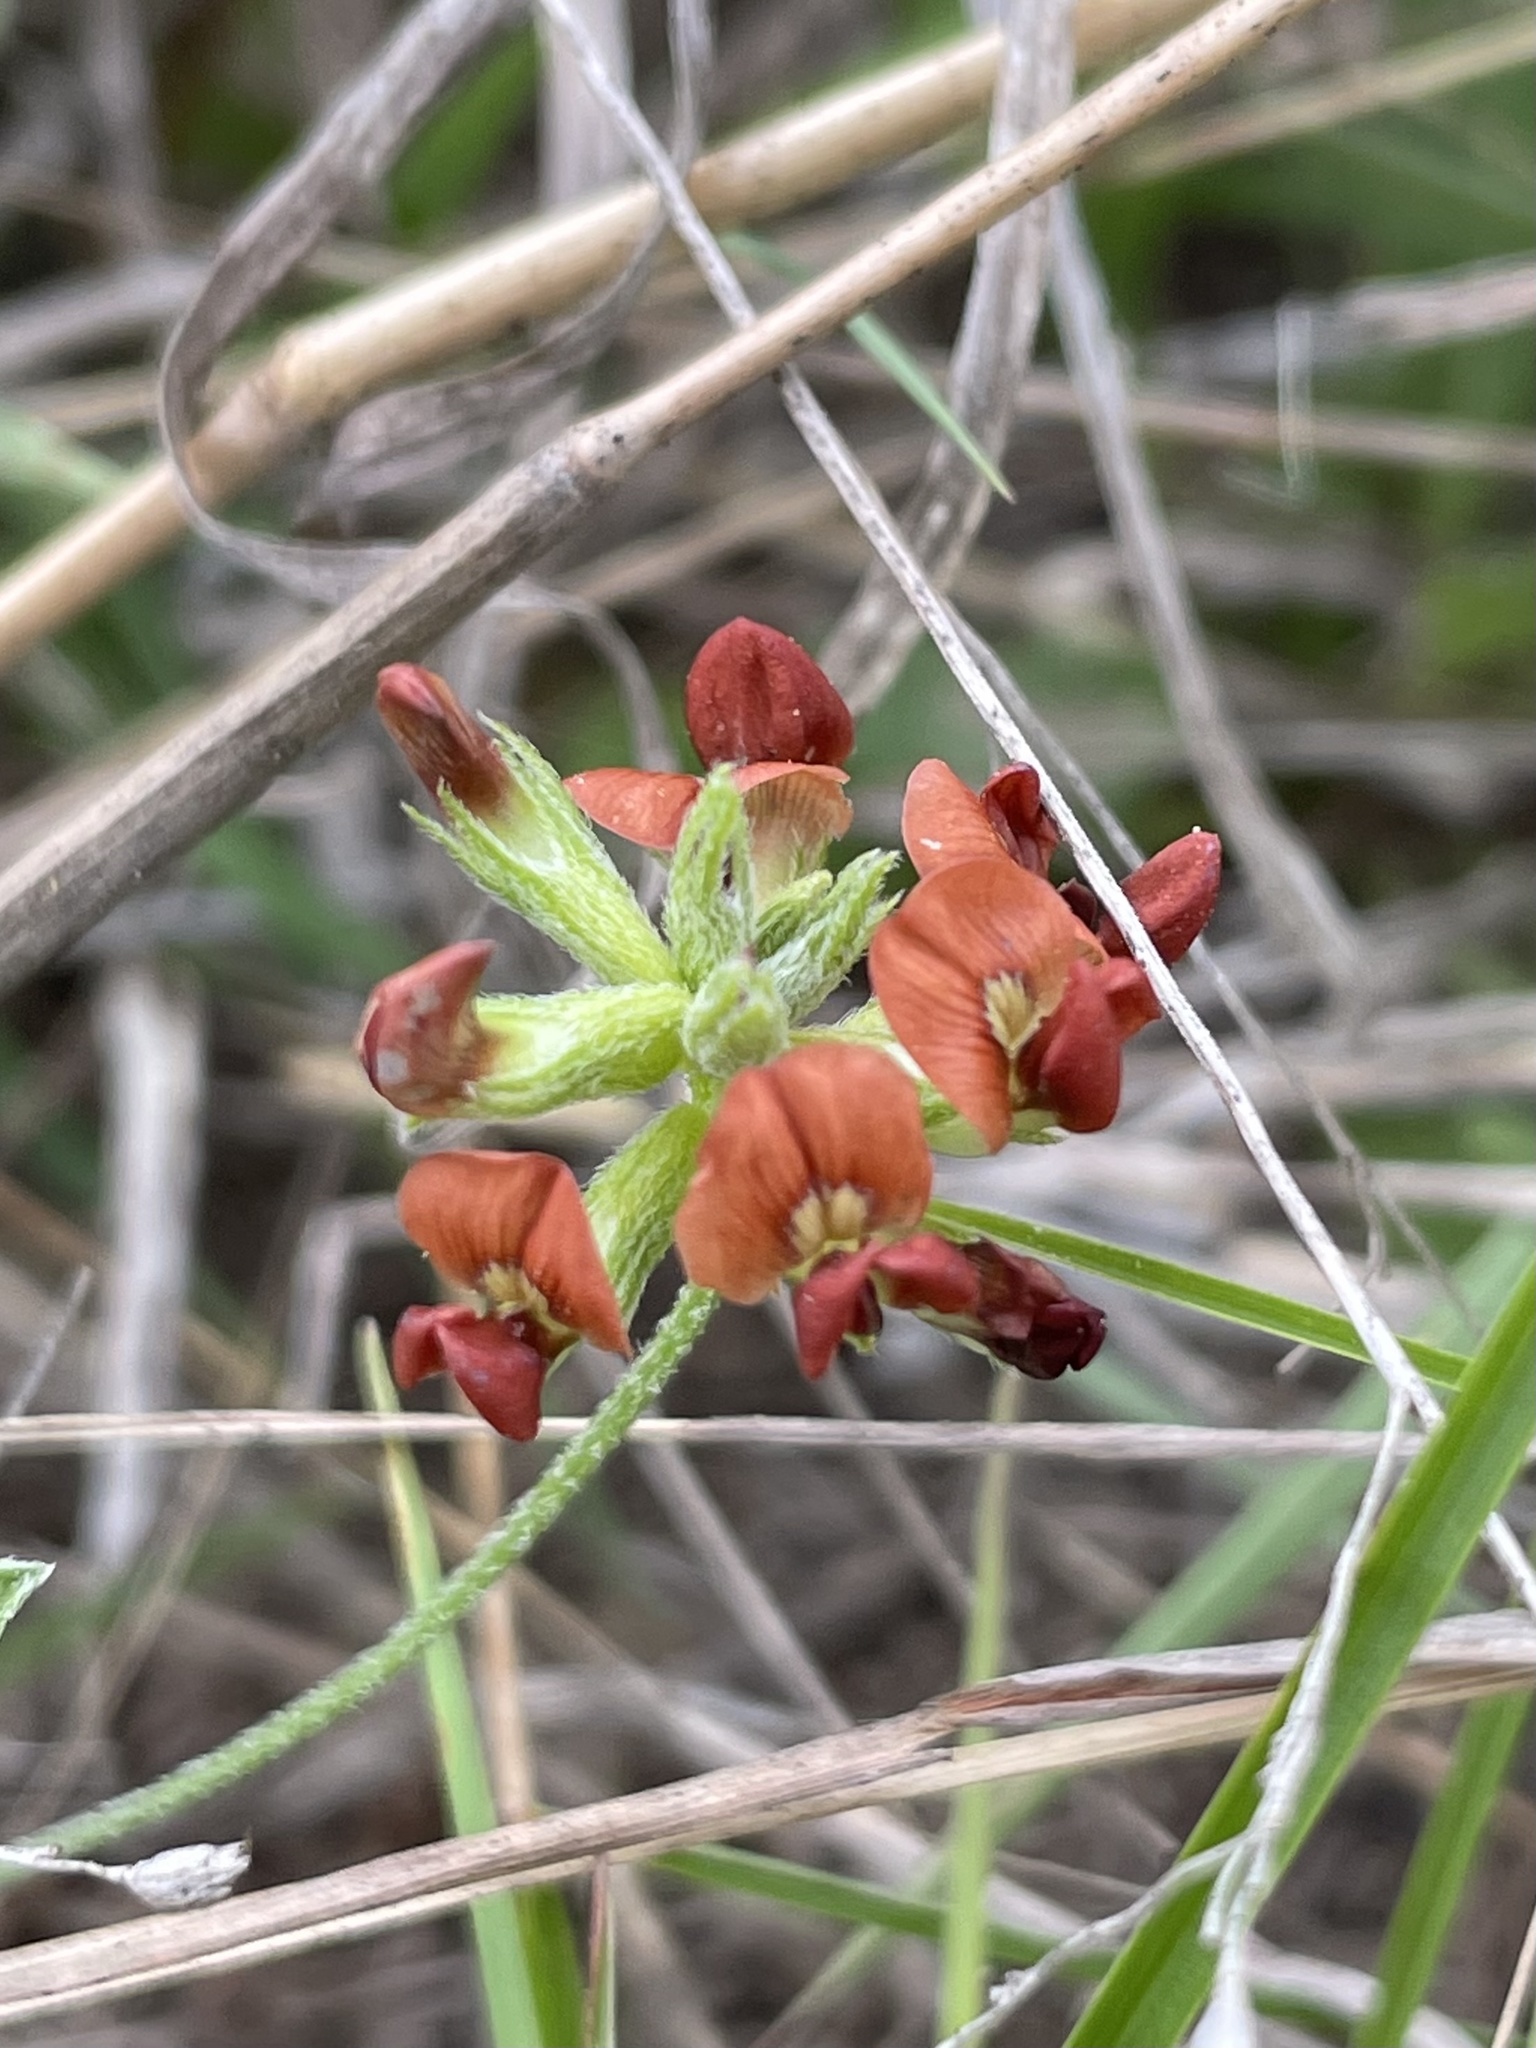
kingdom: Plantae
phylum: Tracheophyta
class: Magnoliopsida
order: Fabales
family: Fabaceae
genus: Pediomelum
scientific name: Pediomelum rhombifolium
